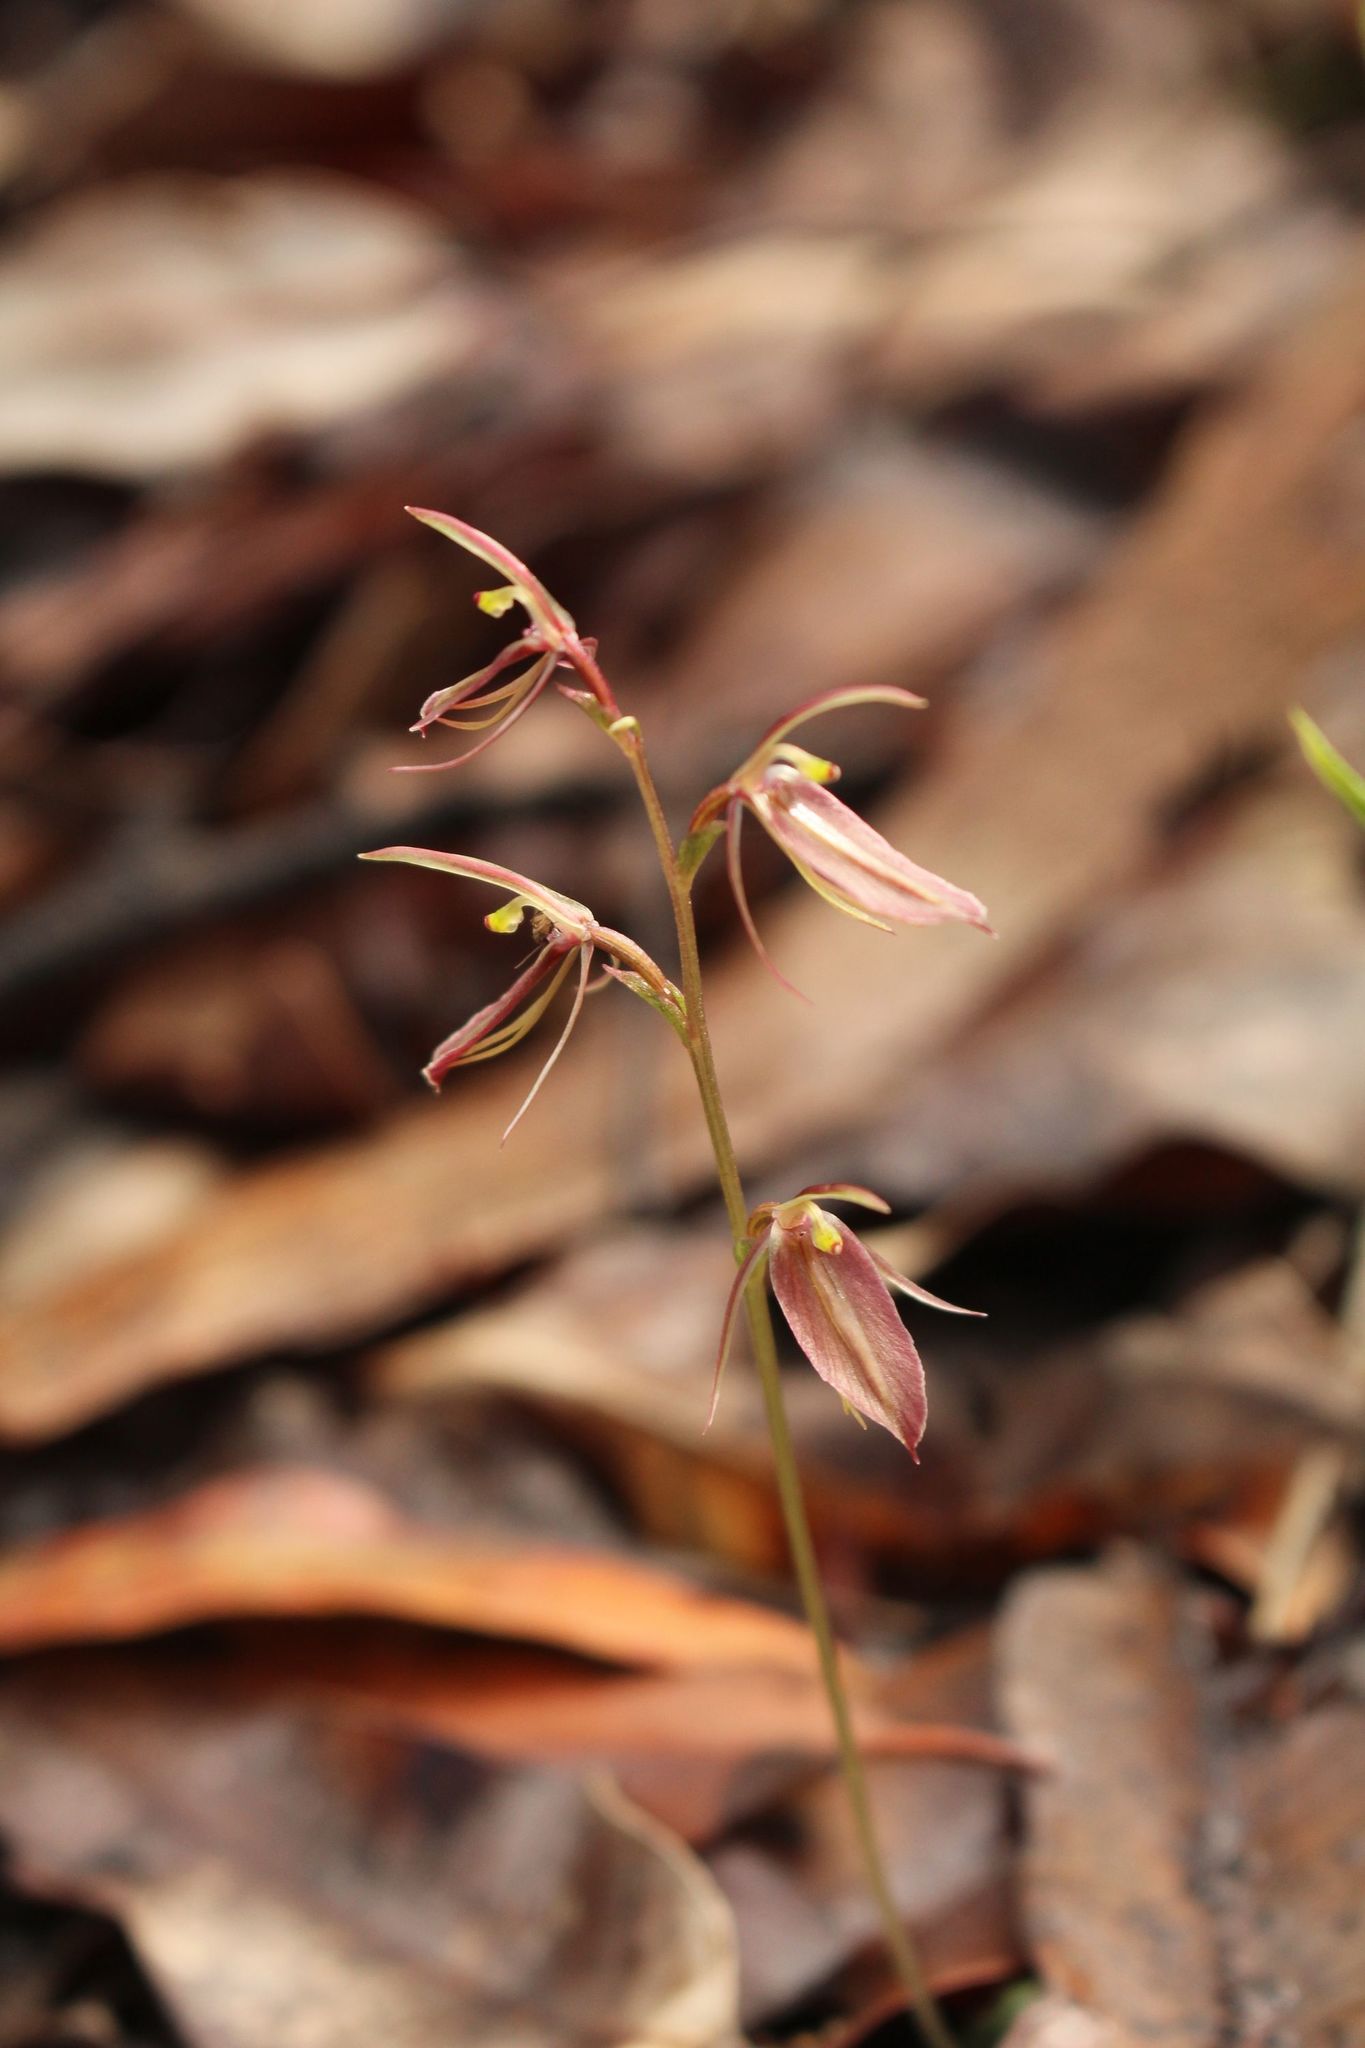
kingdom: Plantae
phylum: Tracheophyta
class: Liliopsida
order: Asparagales
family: Orchidaceae
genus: Cyrtostylis
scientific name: Cyrtostylis robusta
